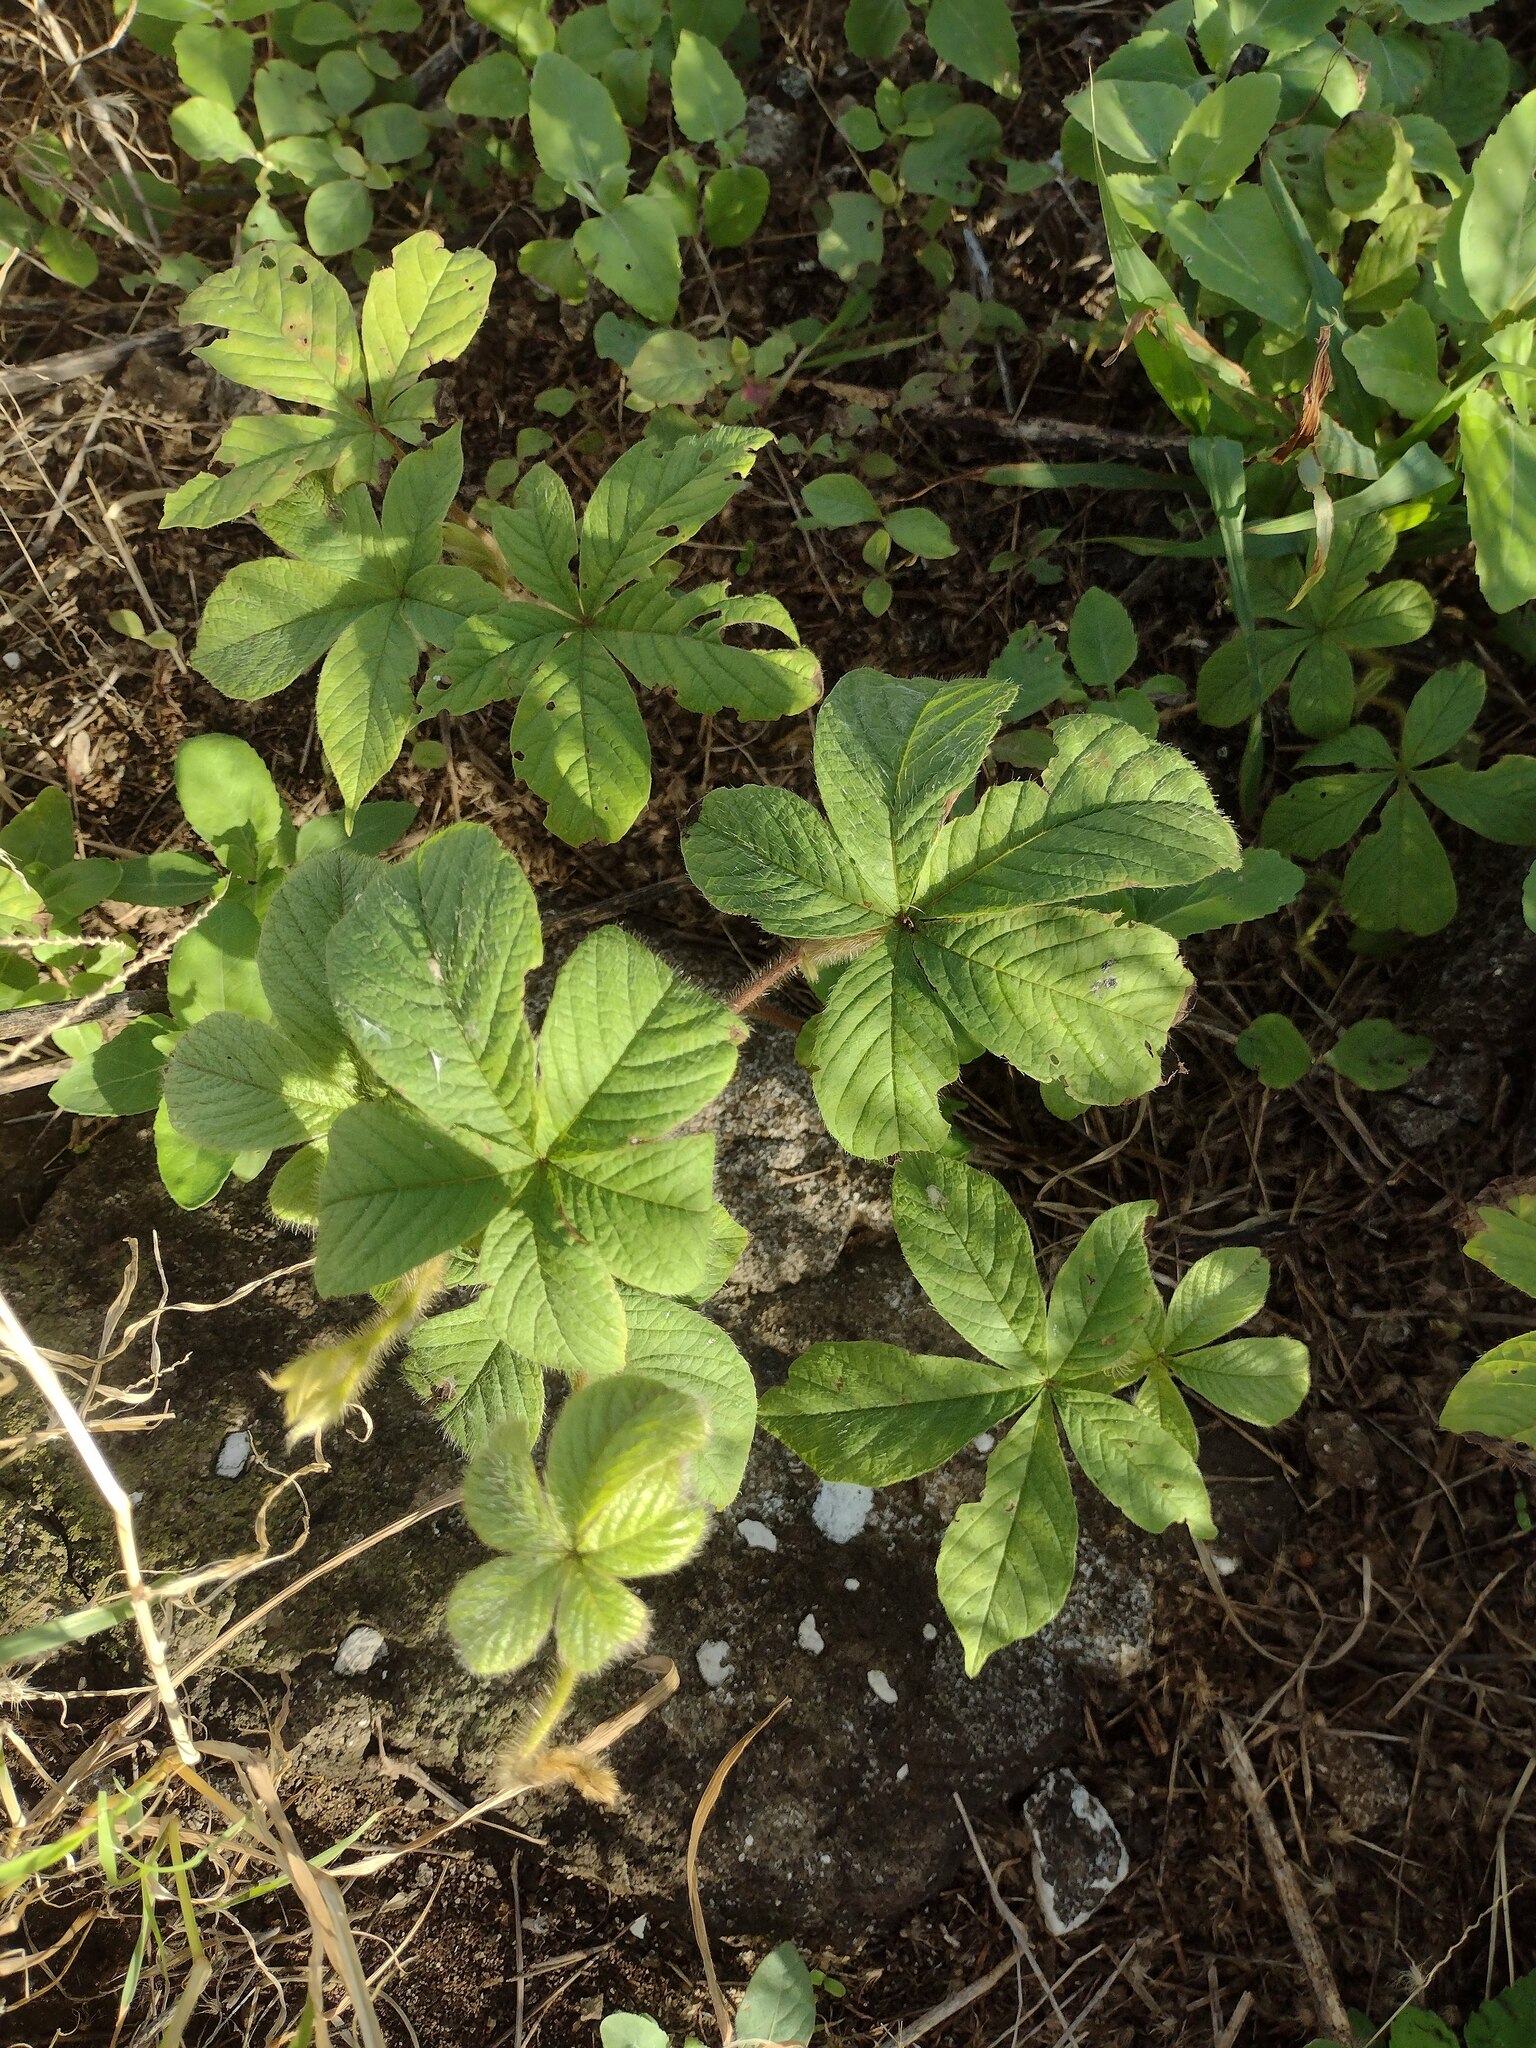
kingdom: Plantae
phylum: Tracheophyta
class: Magnoliopsida
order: Solanales
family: Convolvulaceae
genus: Distimake
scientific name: Distimake aegyptius
